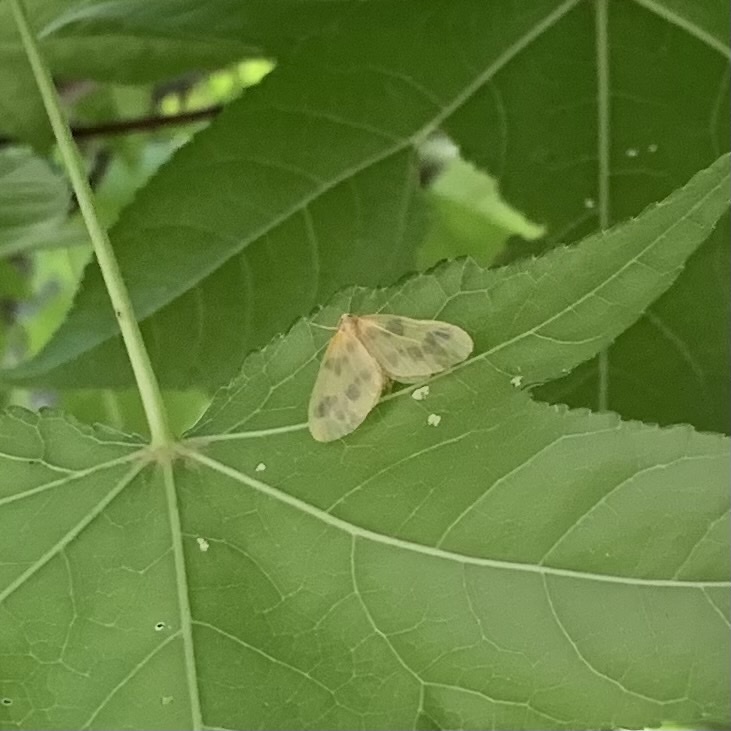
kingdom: Animalia
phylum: Arthropoda
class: Insecta
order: Lepidoptera
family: Geometridae
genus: Eubaphe
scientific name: Eubaphe mendica
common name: Beggar
